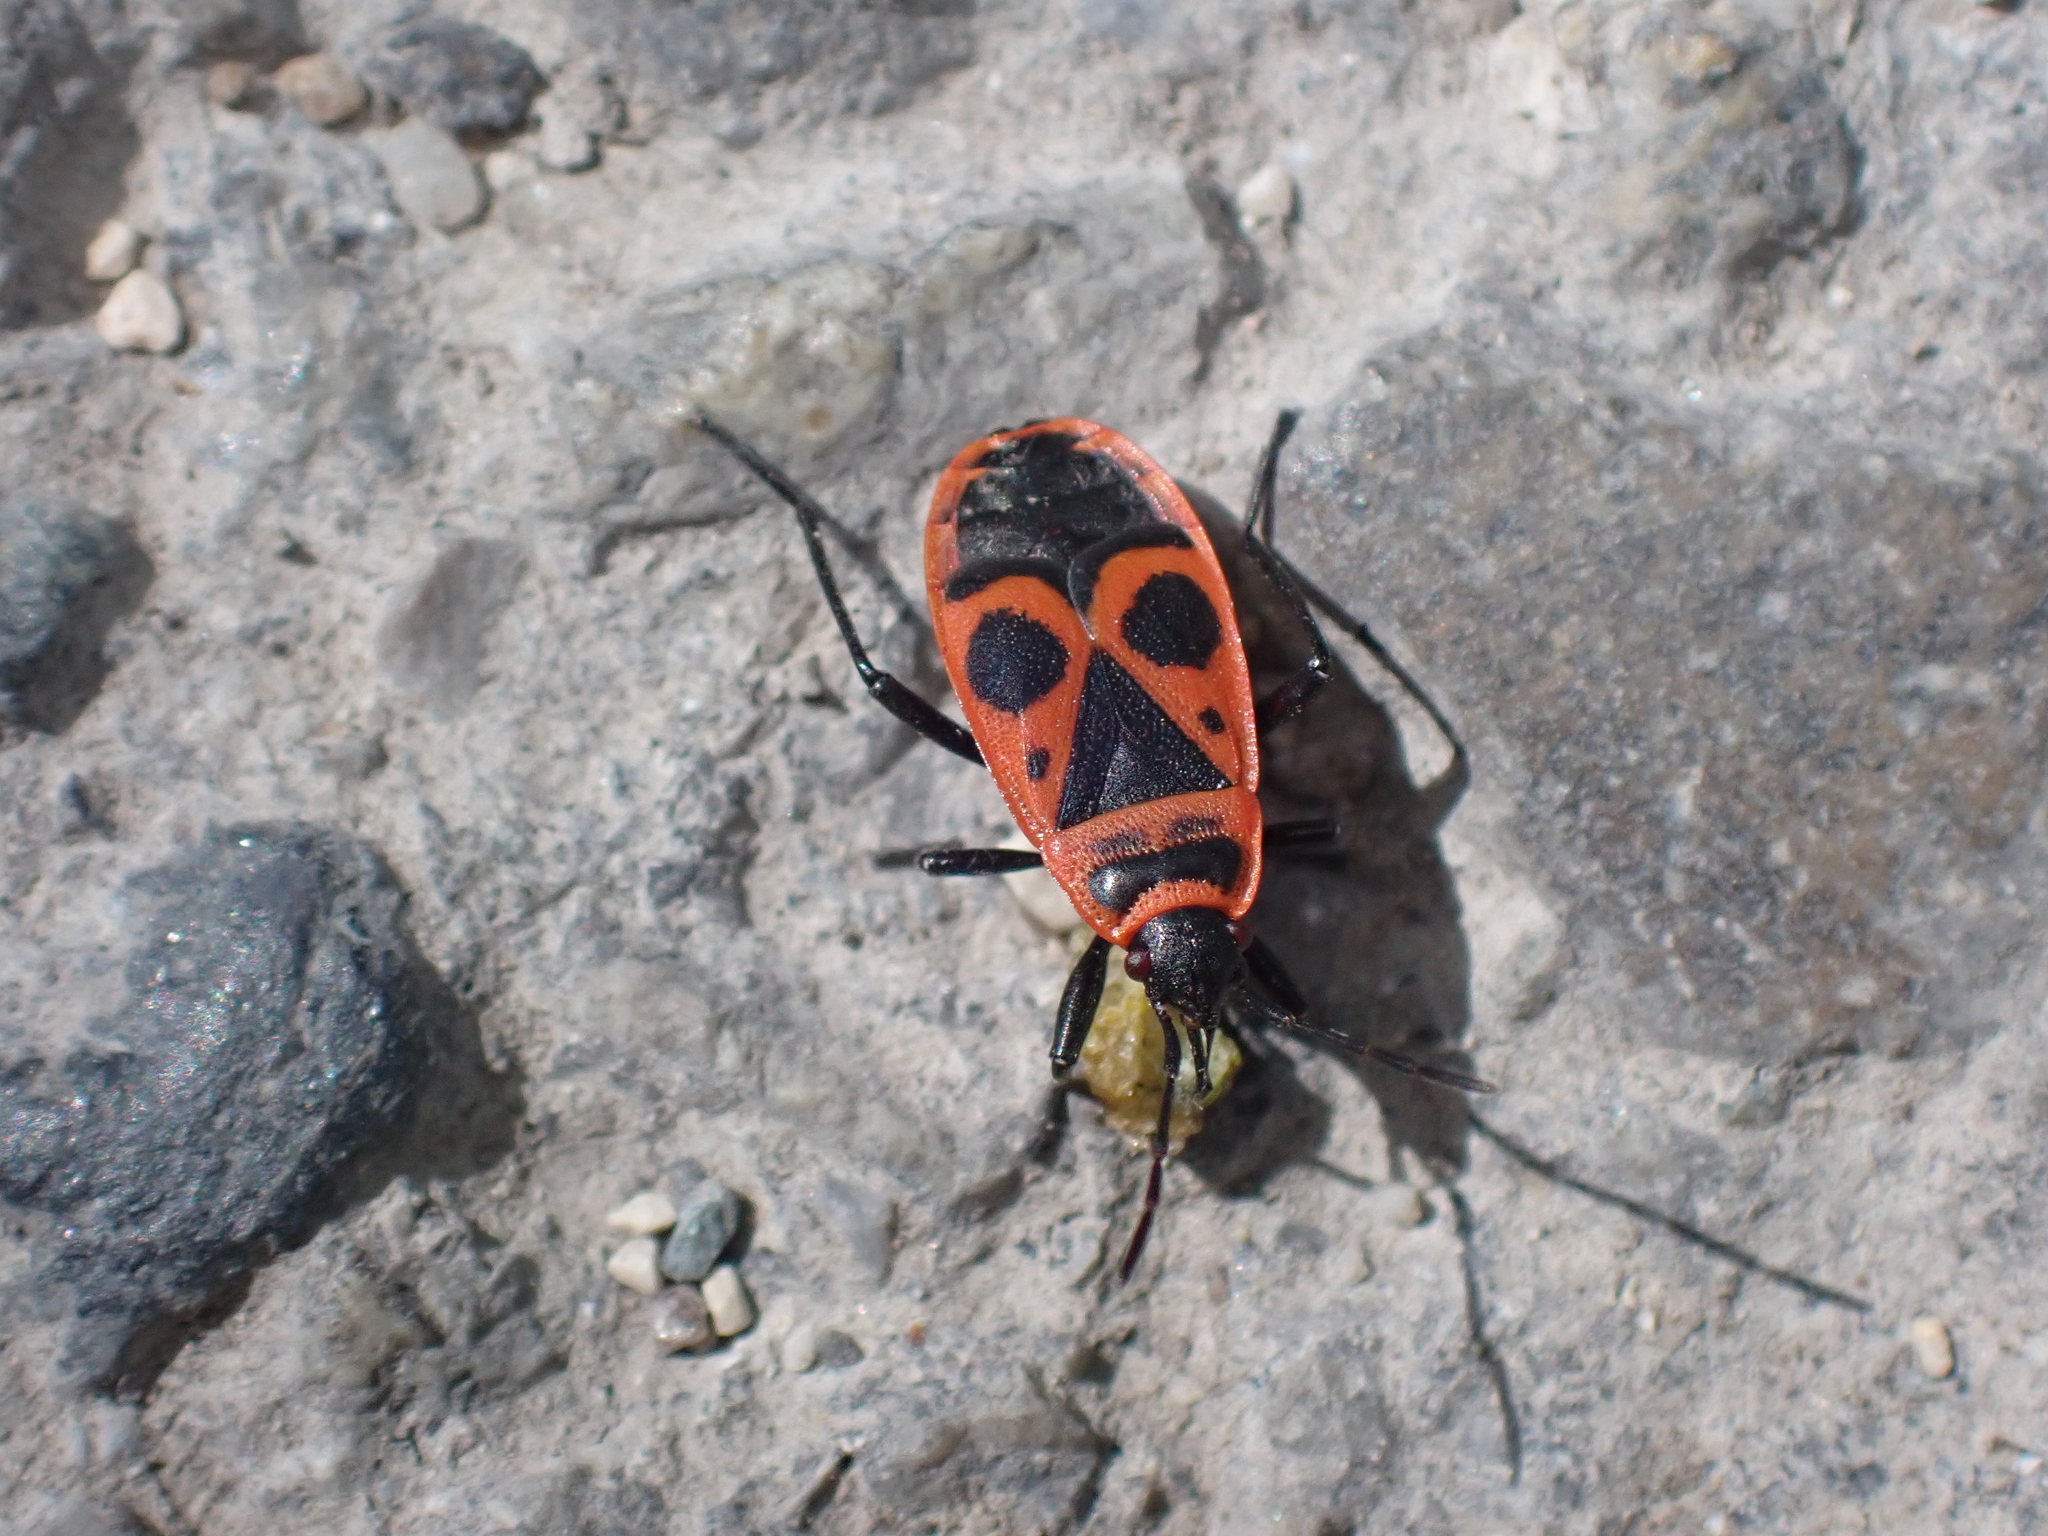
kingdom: Animalia
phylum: Arthropoda
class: Insecta
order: Hemiptera
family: Pyrrhocoridae
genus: Pyrrhocoris
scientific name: Pyrrhocoris apterus
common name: Firebug
